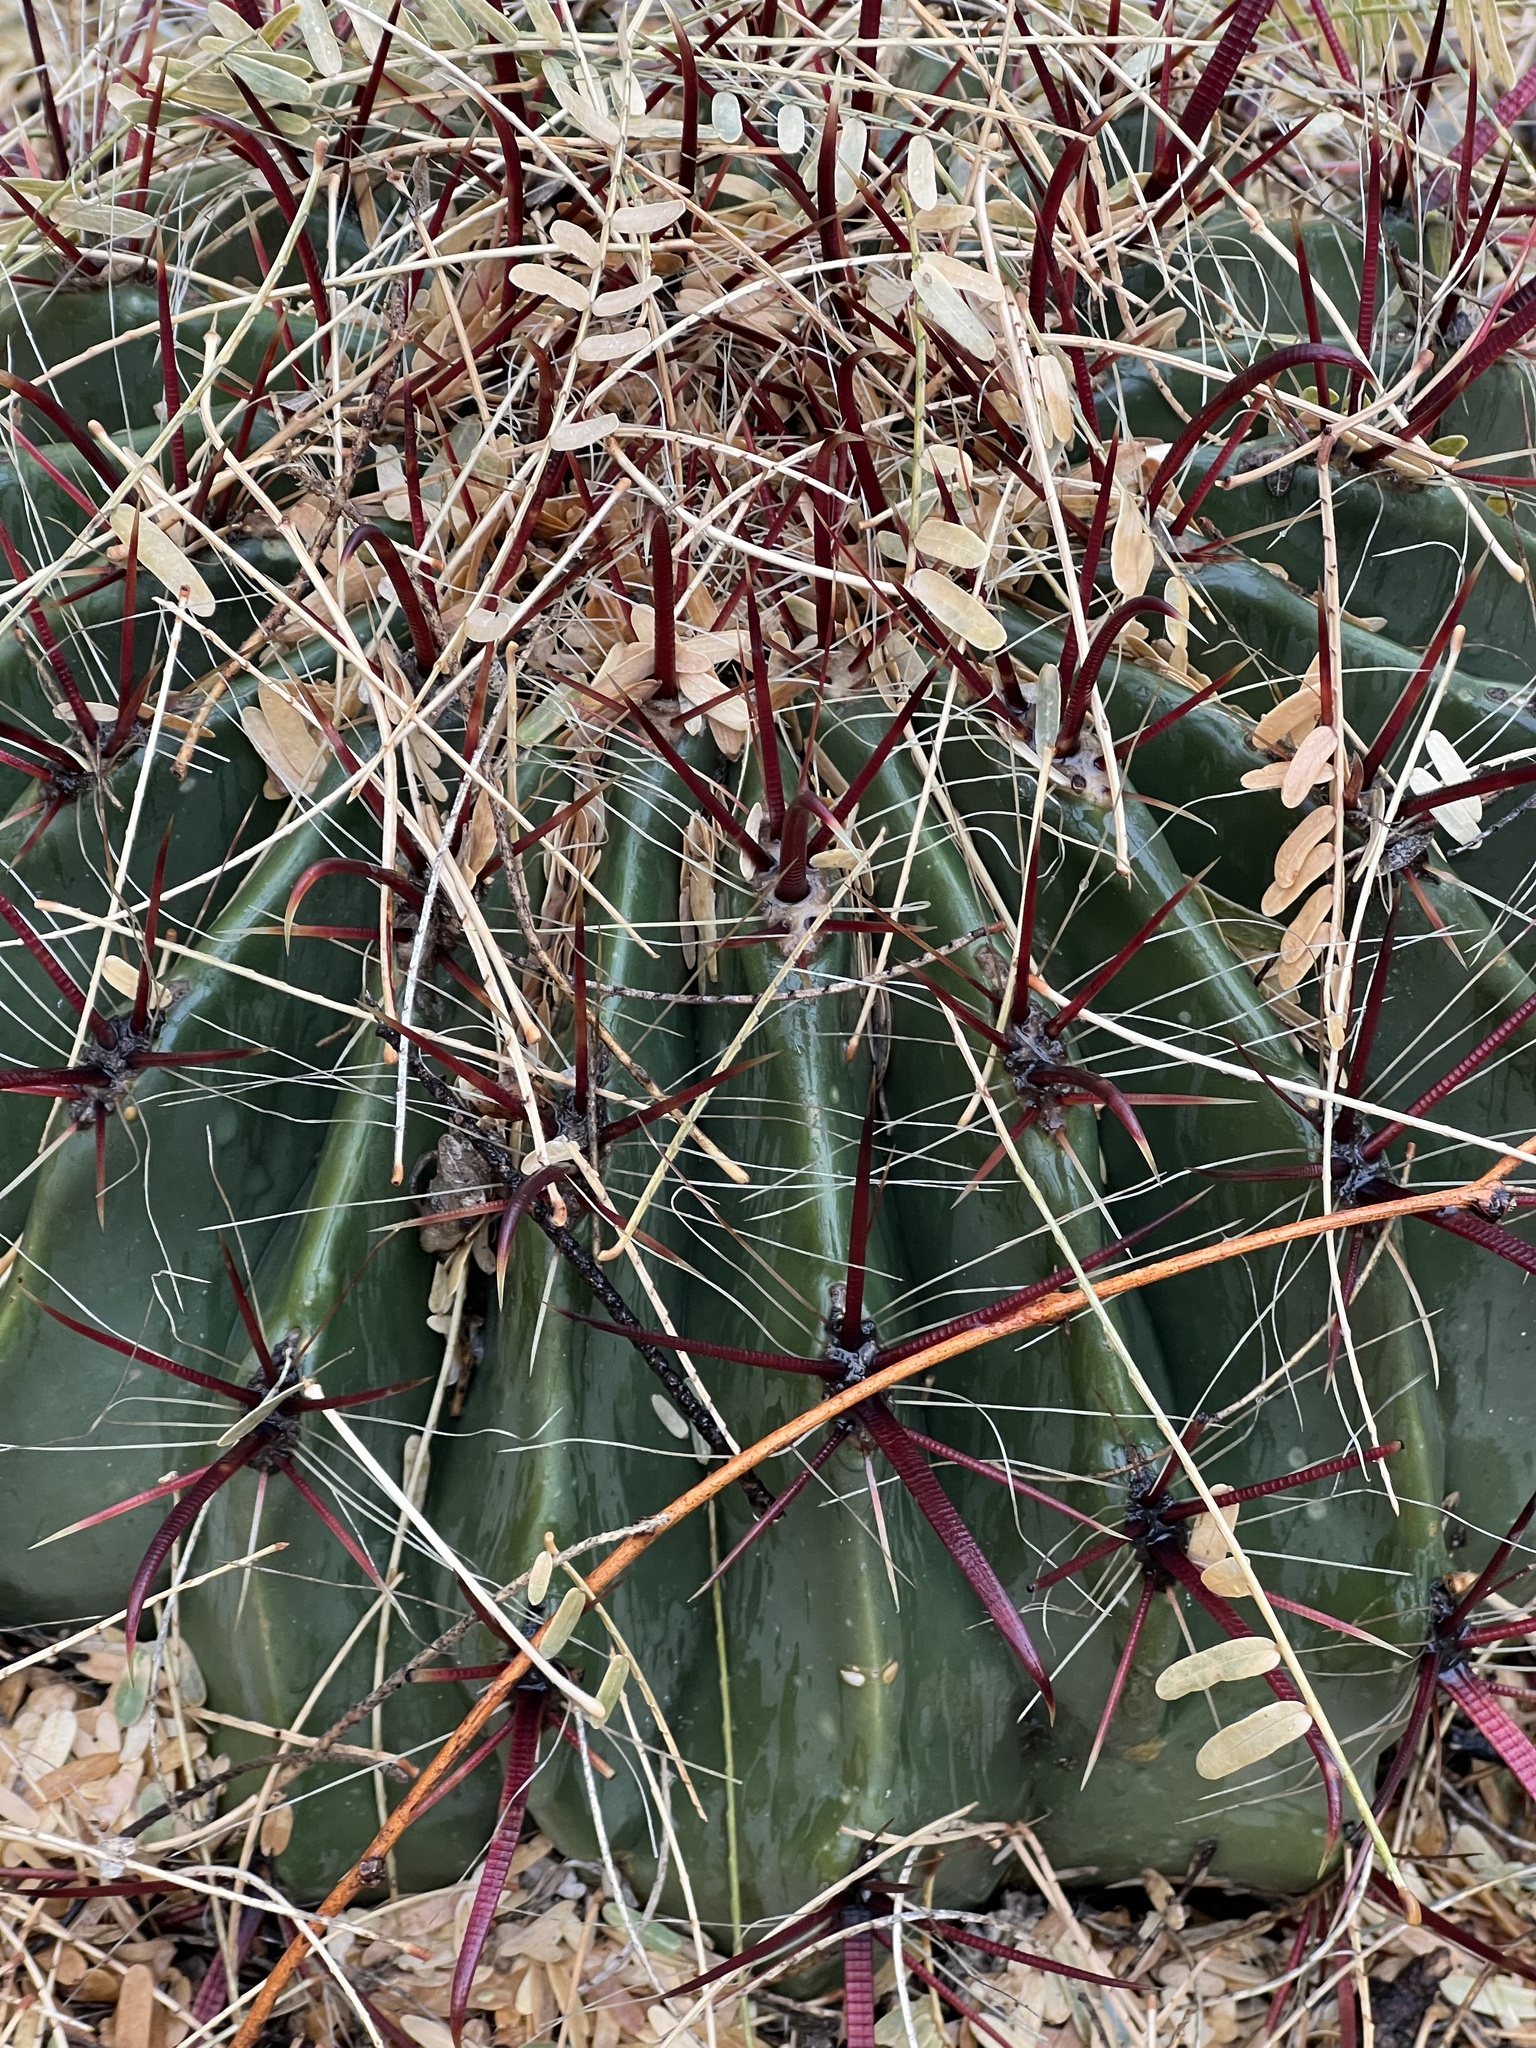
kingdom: Plantae
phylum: Tracheophyta
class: Magnoliopsida
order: Caryophyllales
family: Cactaceae
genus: Ferocactus
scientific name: Ferocactus wislizeni
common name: Candy barrel cactus
